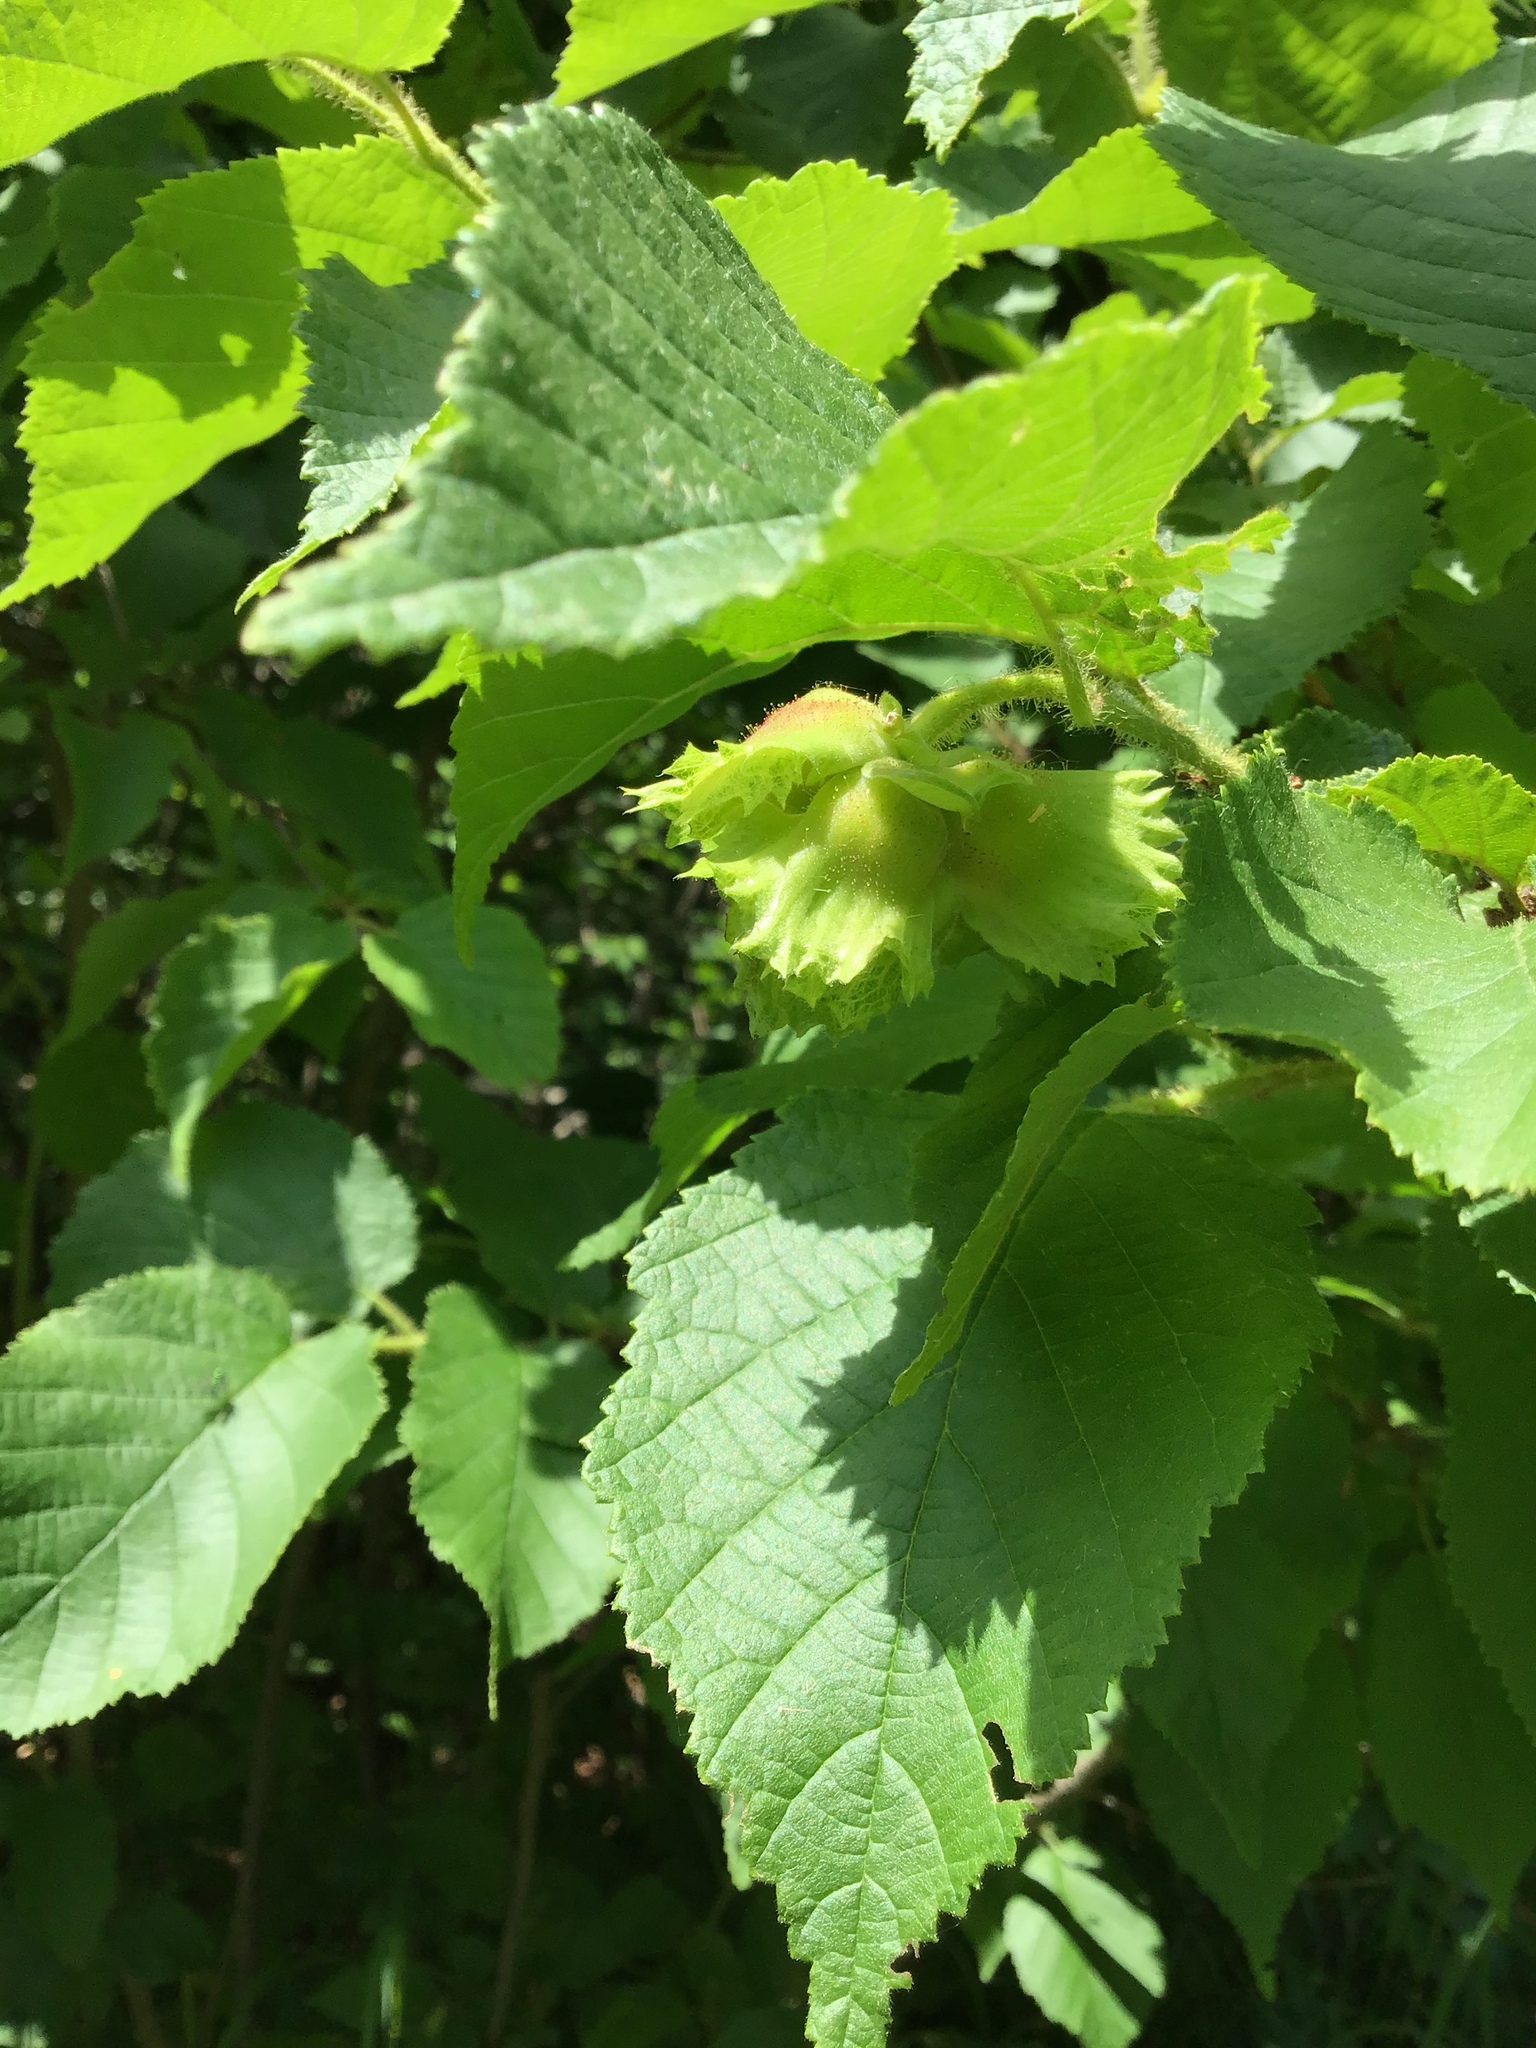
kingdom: Plantae
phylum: Tracheophyta
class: Magnoliopsida
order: Fagales
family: Betulaceae
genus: Corylus
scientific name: Corylus americana
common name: American hazel
